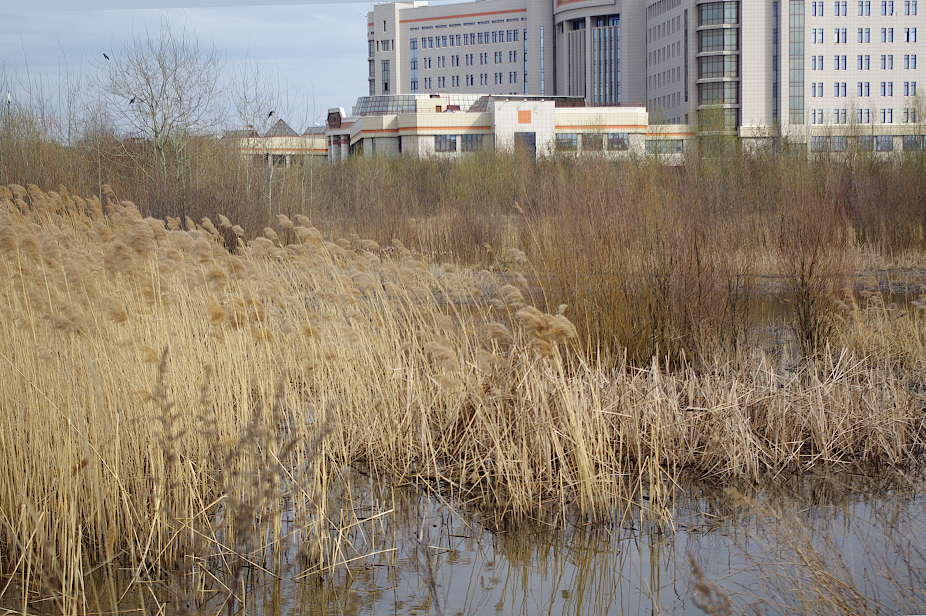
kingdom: Plantae
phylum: Tracheophyta
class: Liliopsida
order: Poales
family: Poaceae
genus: Phragmites
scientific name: Phragmites australis
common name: Common reed
